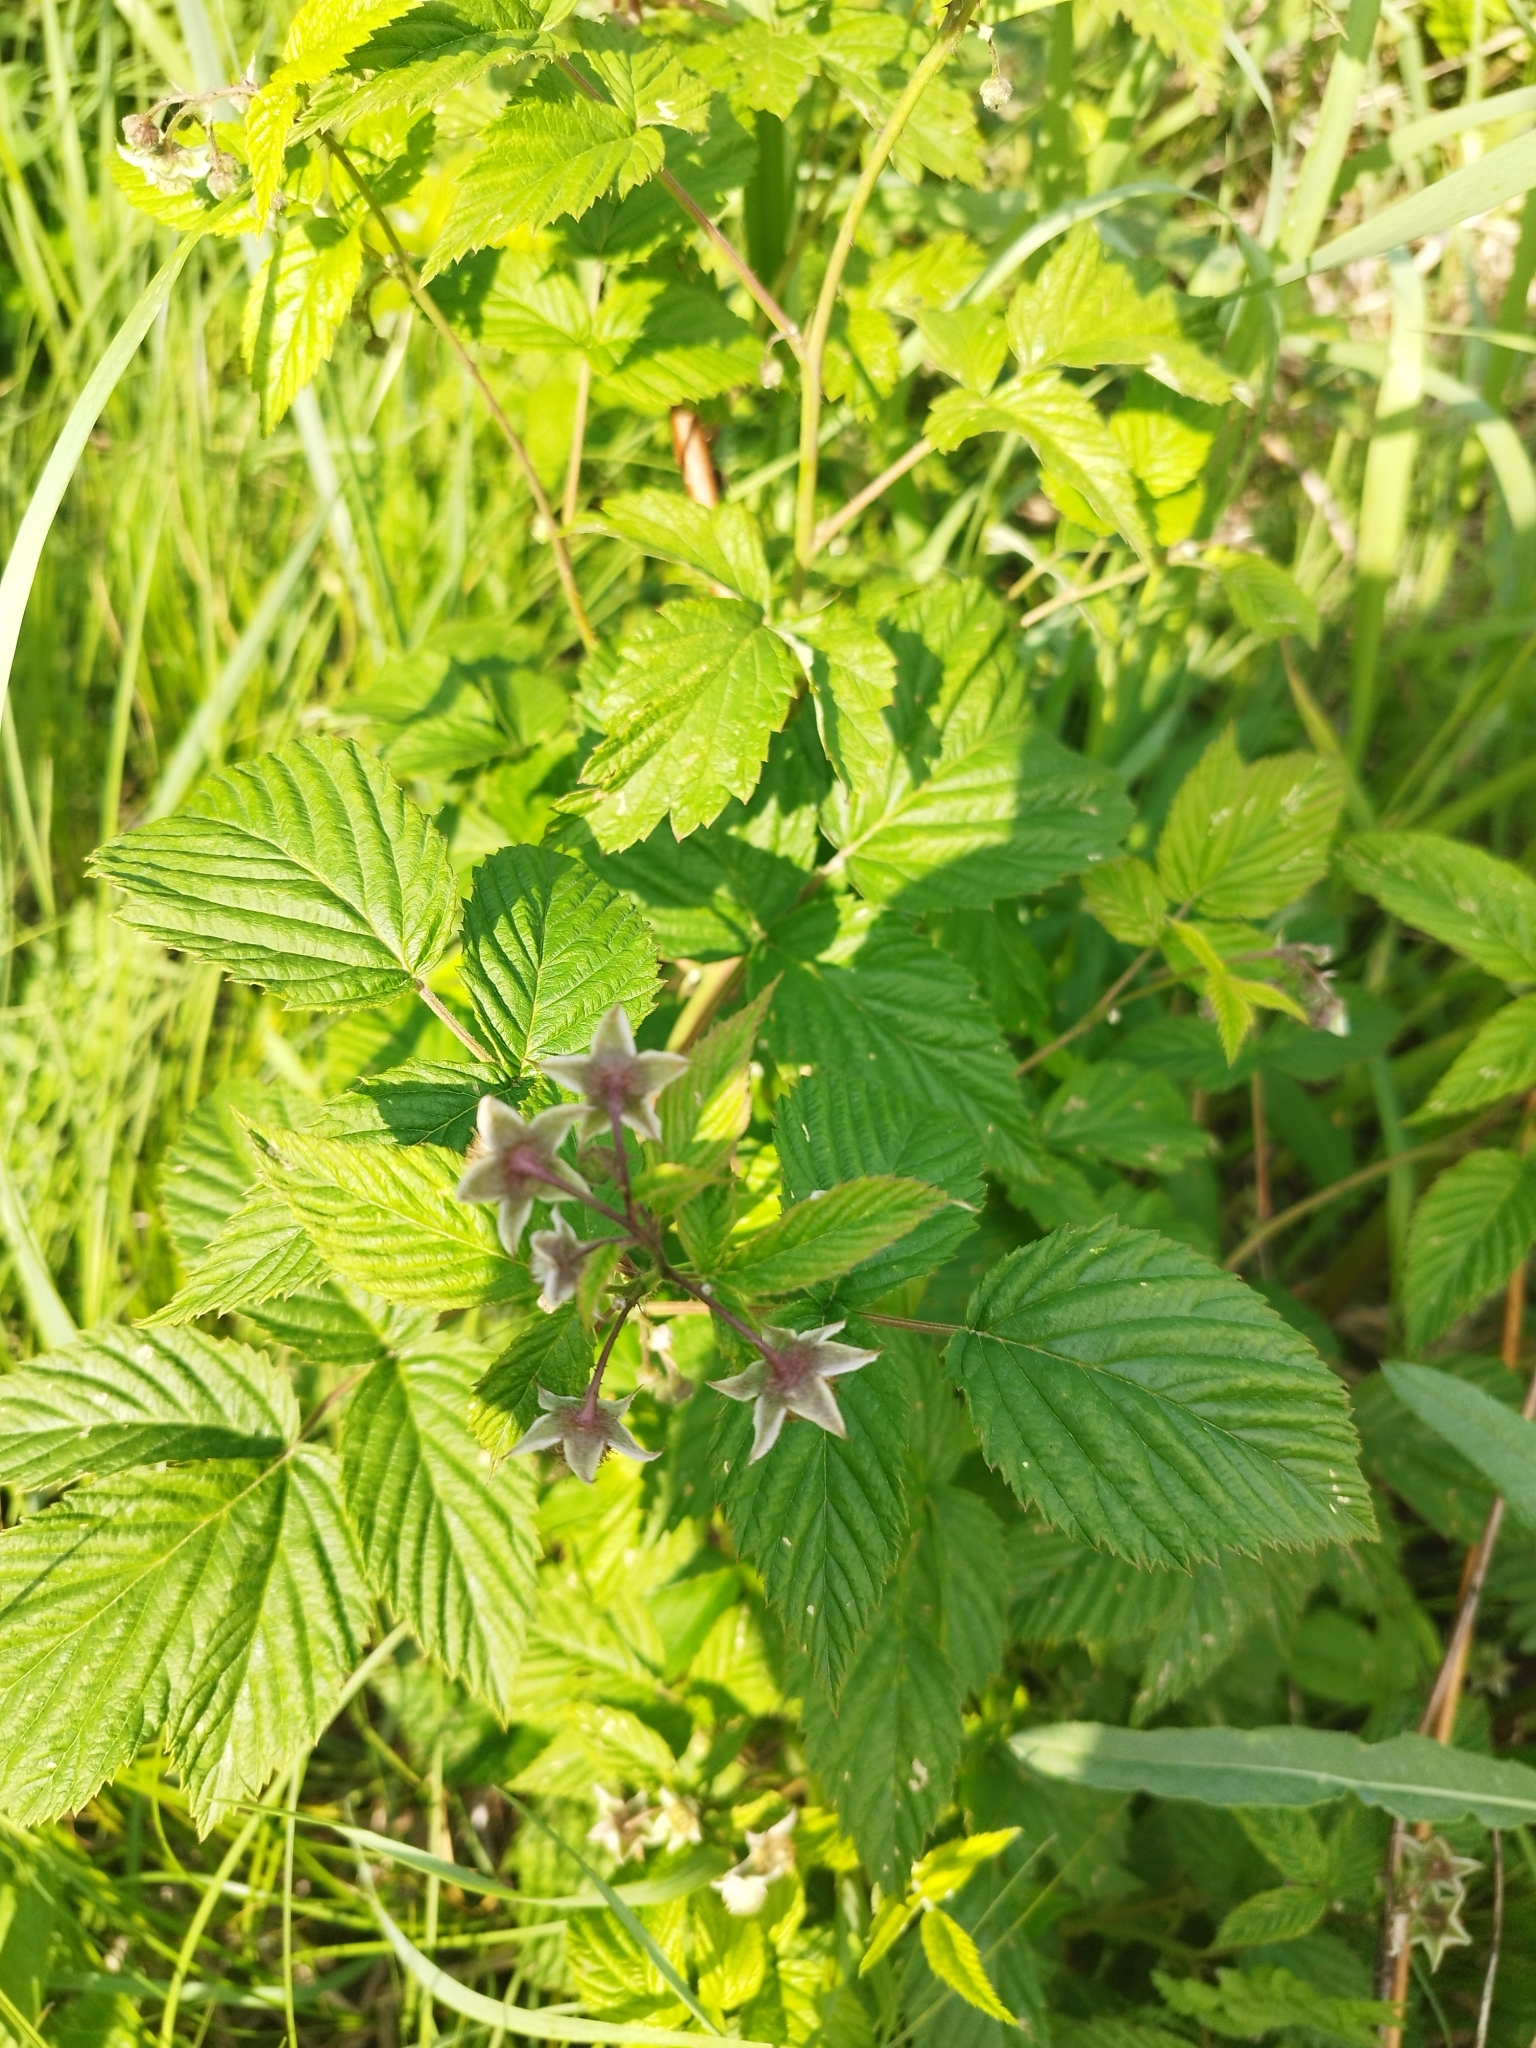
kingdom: Plantae
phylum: Tracheophyta
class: Magnoliopsida
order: Rosales
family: Rosaceae
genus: Rubus
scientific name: Rubus idaeus
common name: Raspberry
